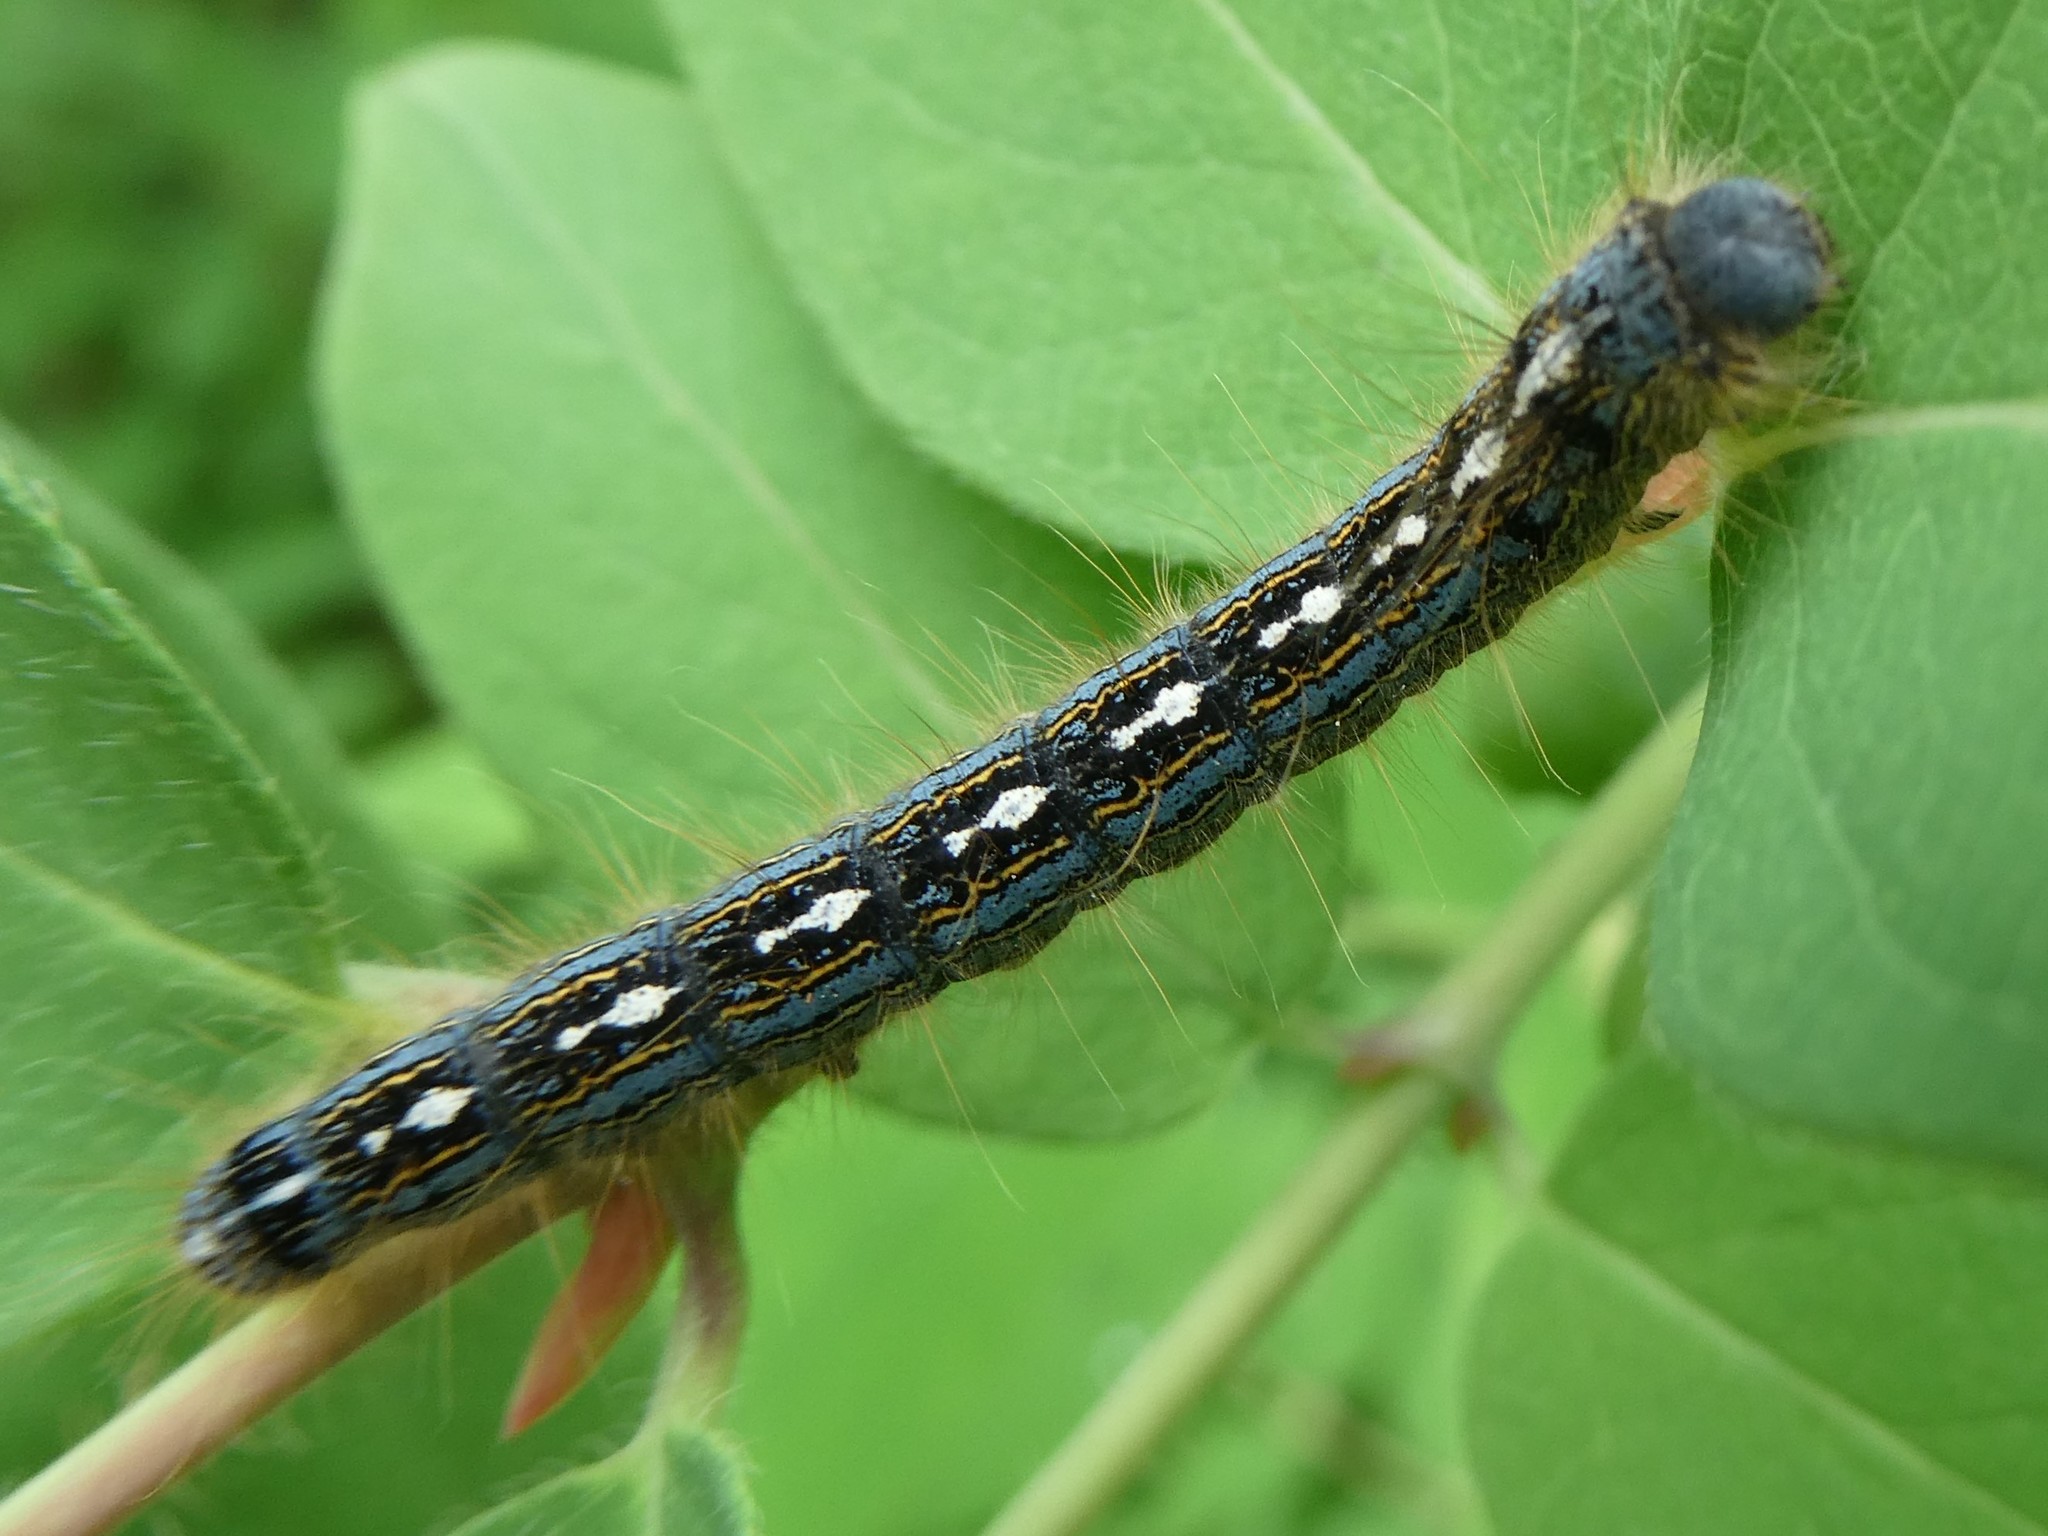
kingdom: Animalia
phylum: Arthropoda
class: Insecta
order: Lepidoptera
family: Lasiocampidae
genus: Malacosoma
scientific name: Malacosoma disstria
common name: Forest tent caterpillar
